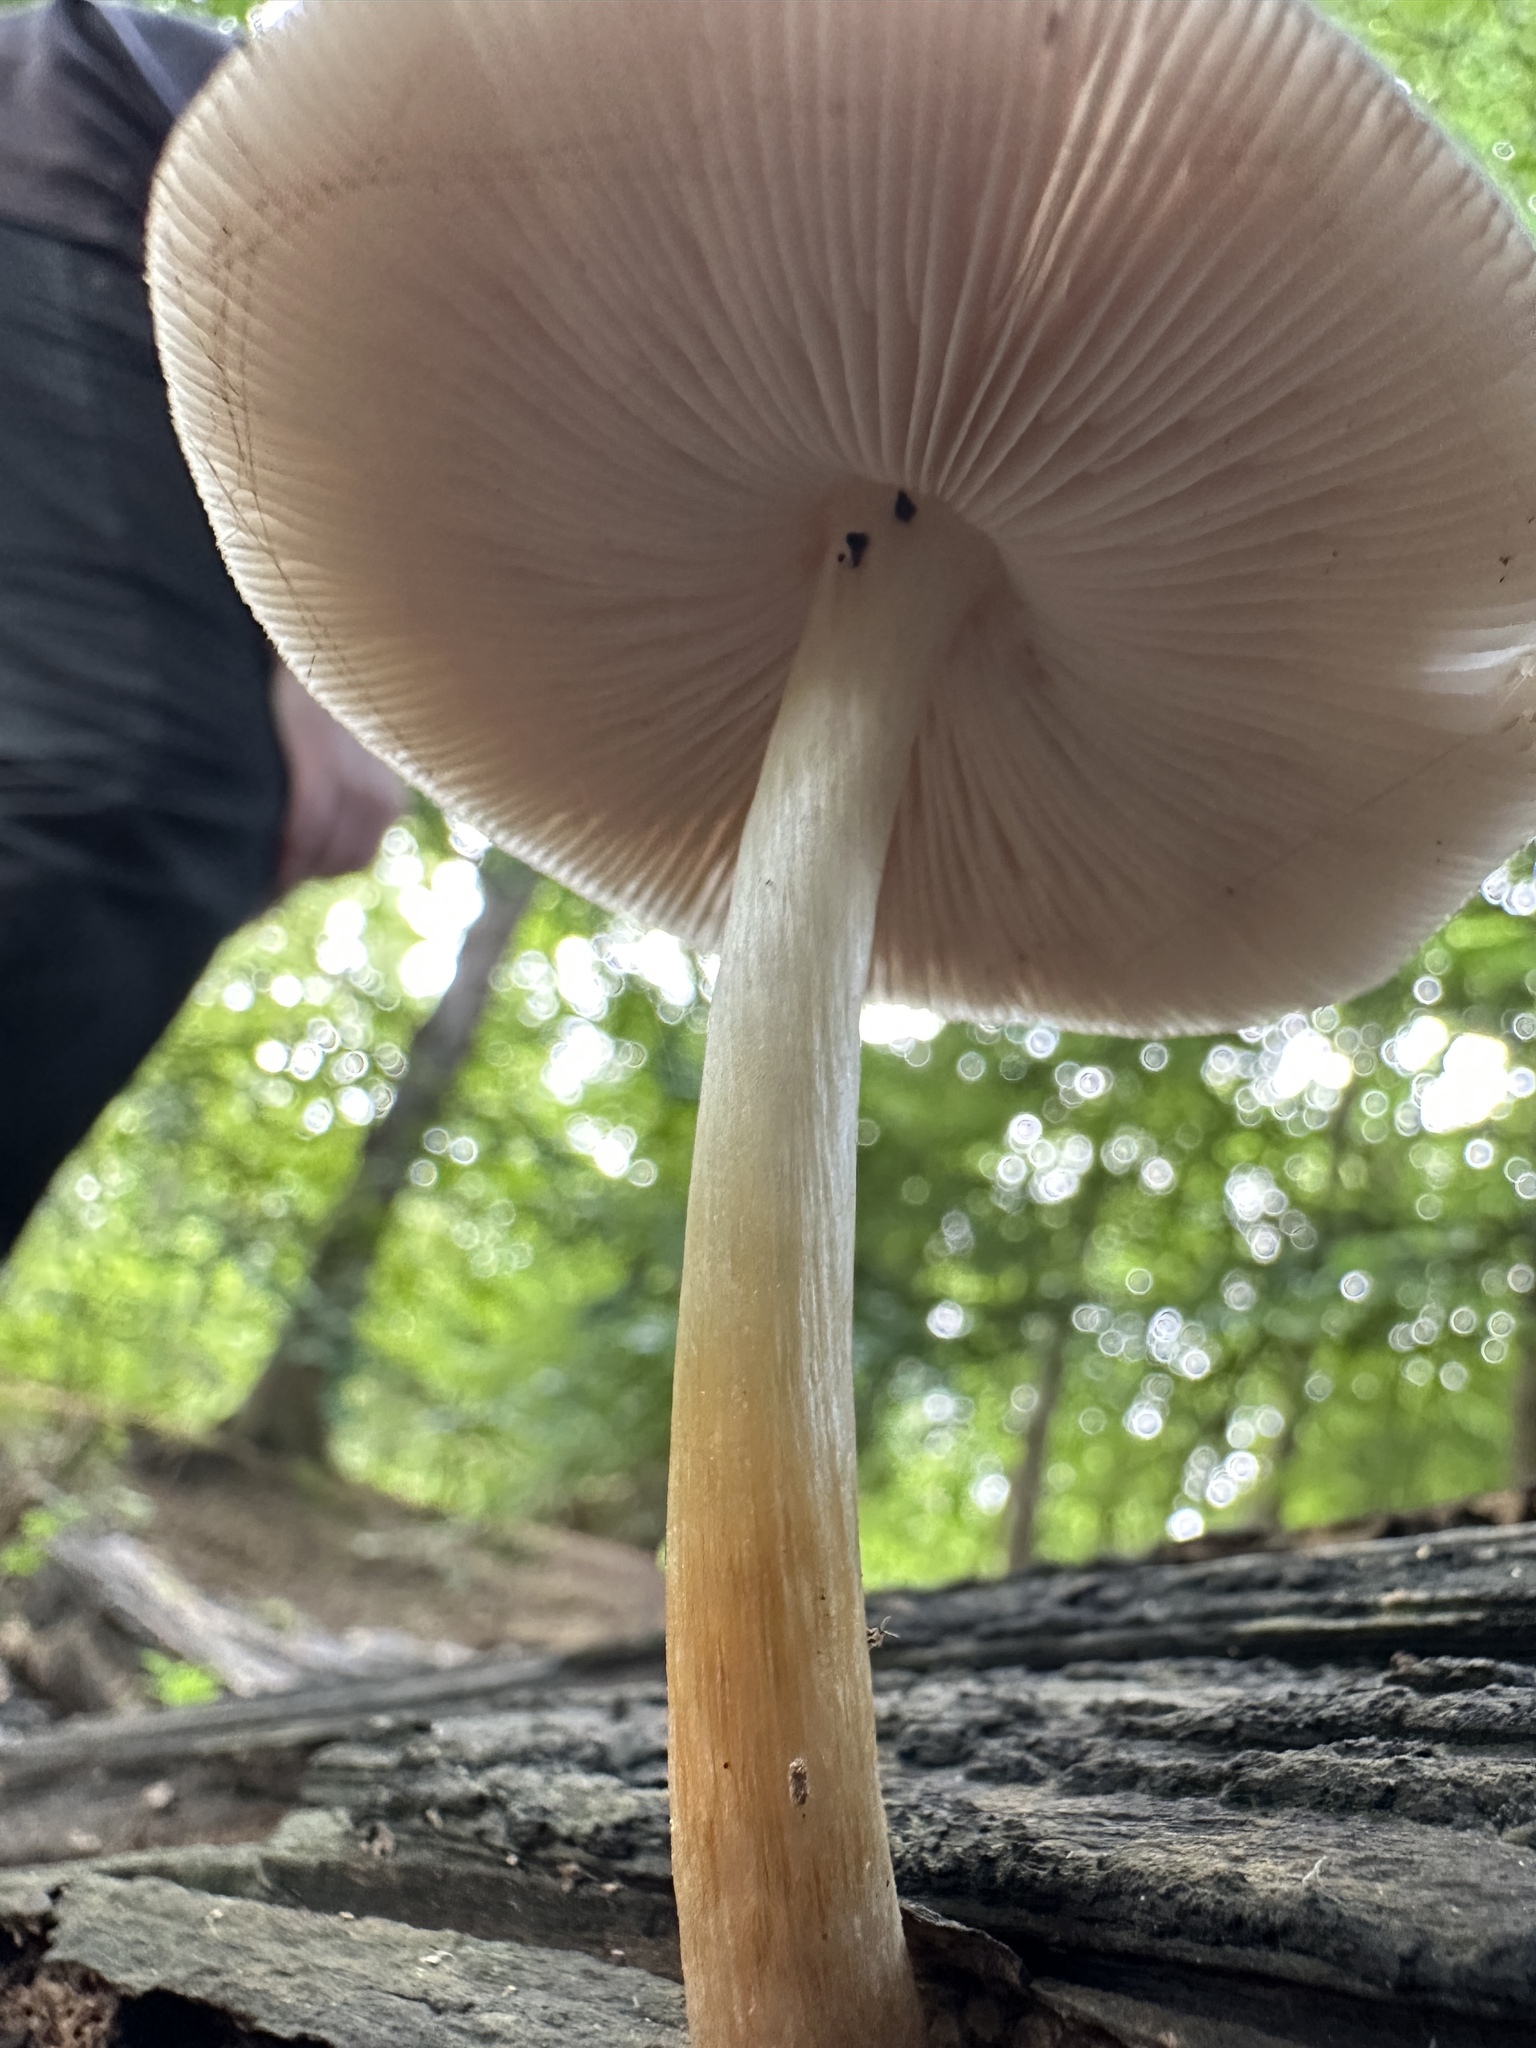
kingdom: Fungi
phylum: Basidiomycota
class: Agaricomycetes
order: Agaricales
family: Pluteaceae
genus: Pluteus
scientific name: Pluteus salicinus
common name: Willow shield
